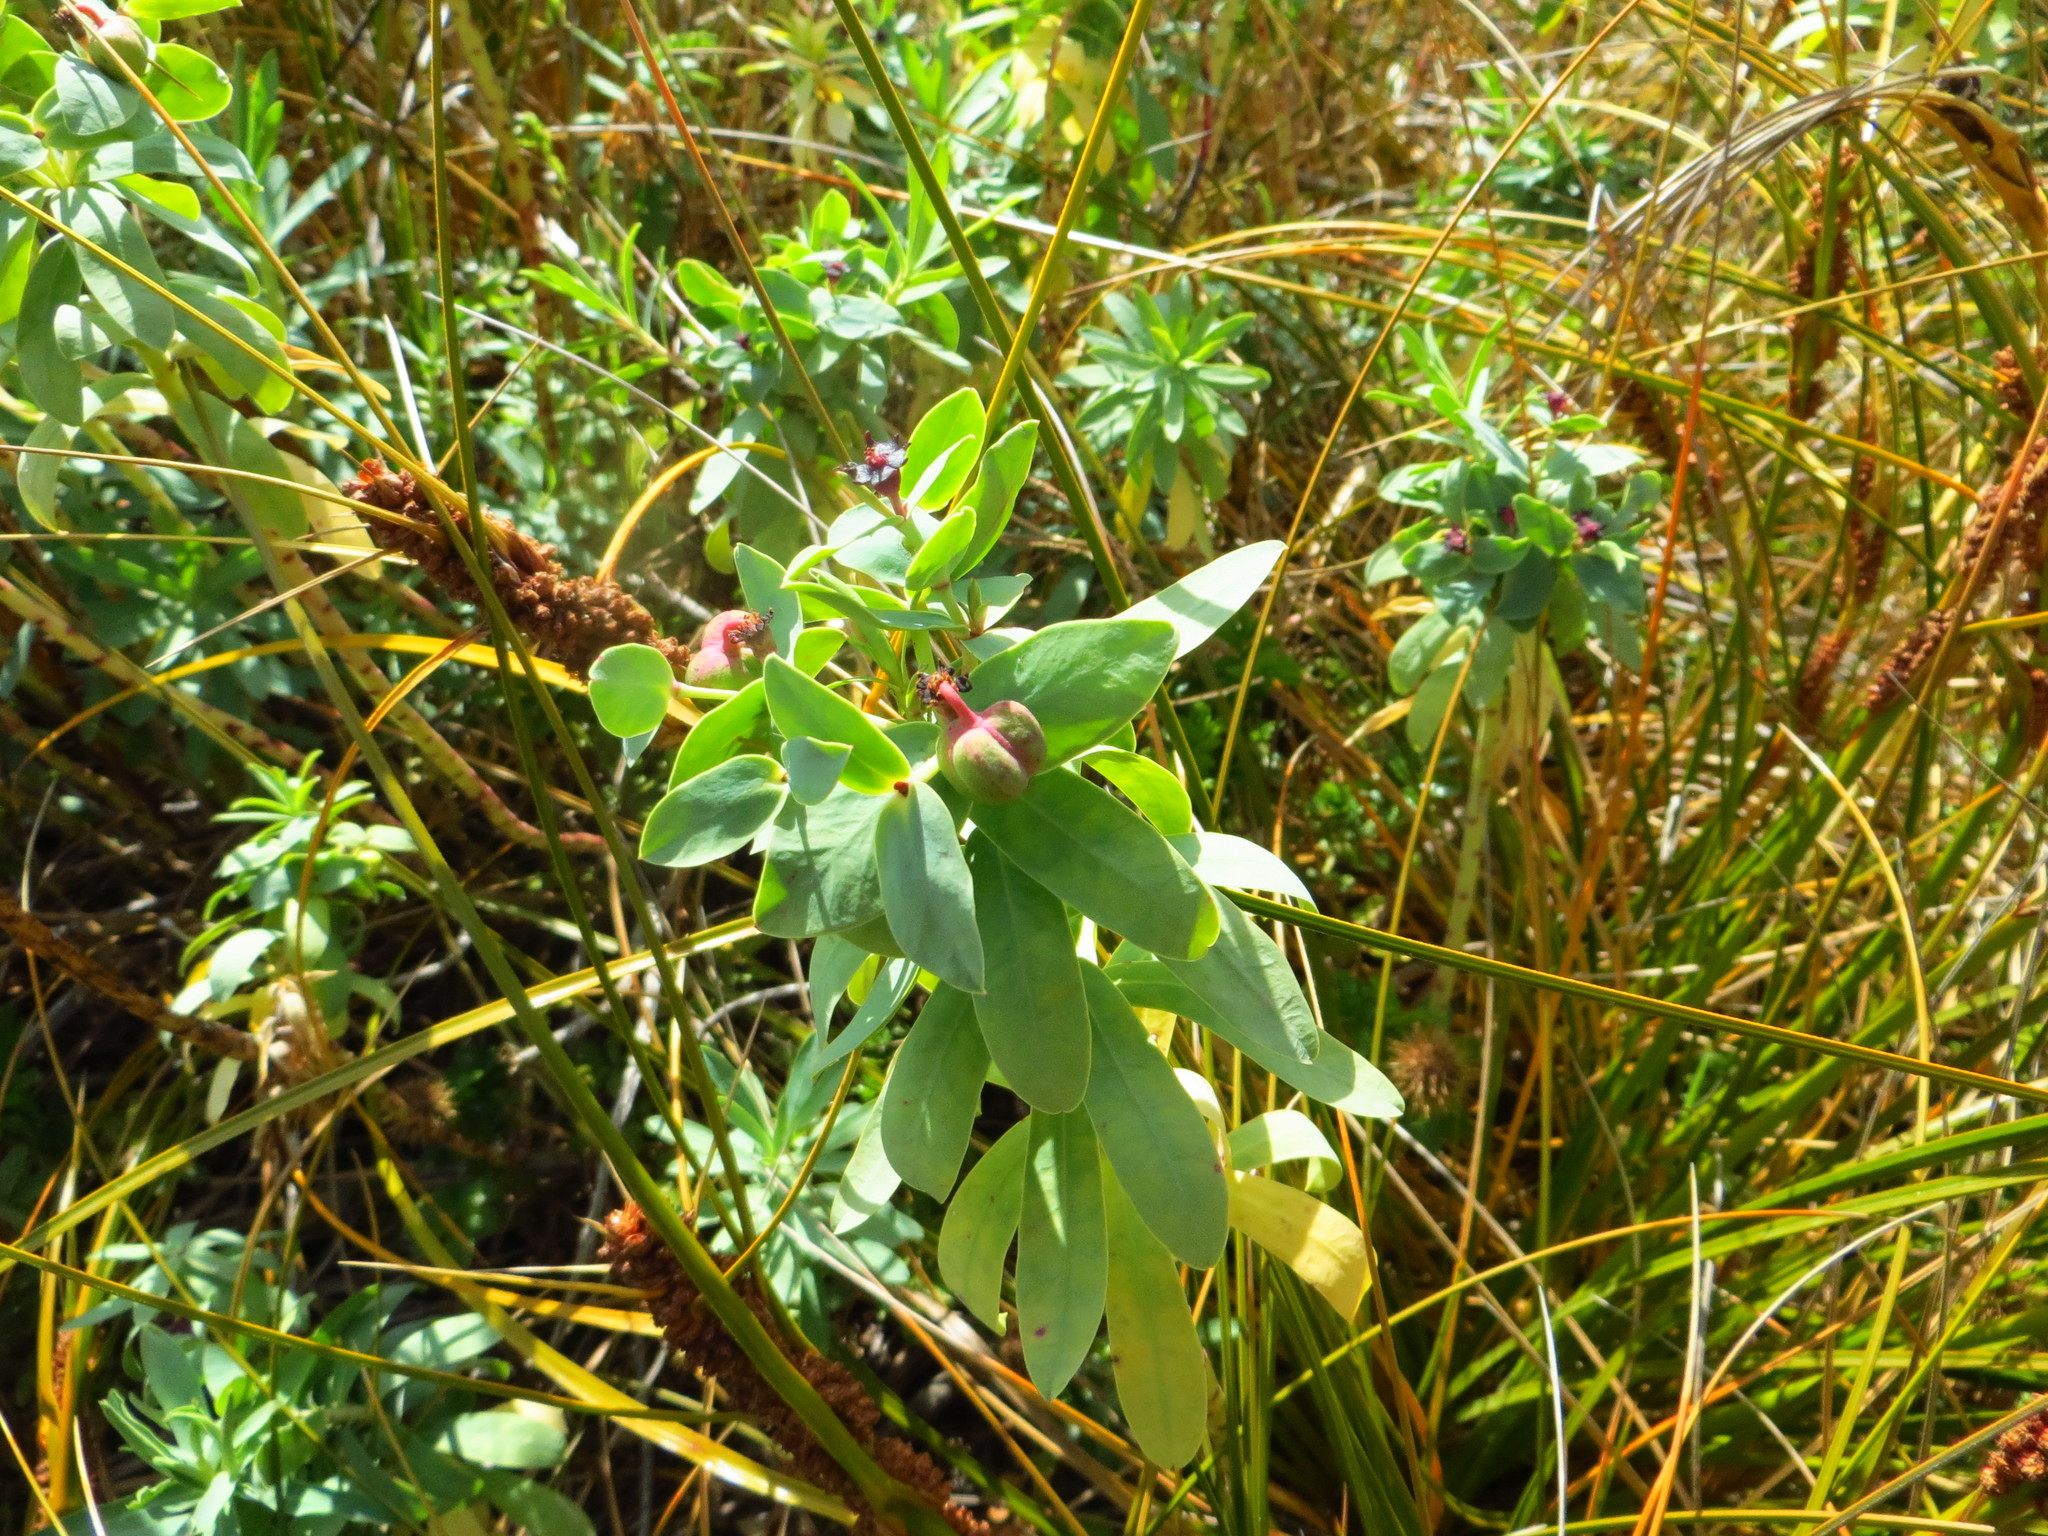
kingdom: Plantae
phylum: Tracheophyta
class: Magnoliopsida
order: Malpighiales
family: Euphorbiaceae
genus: Euphorbia
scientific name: Euphorbia glauca
